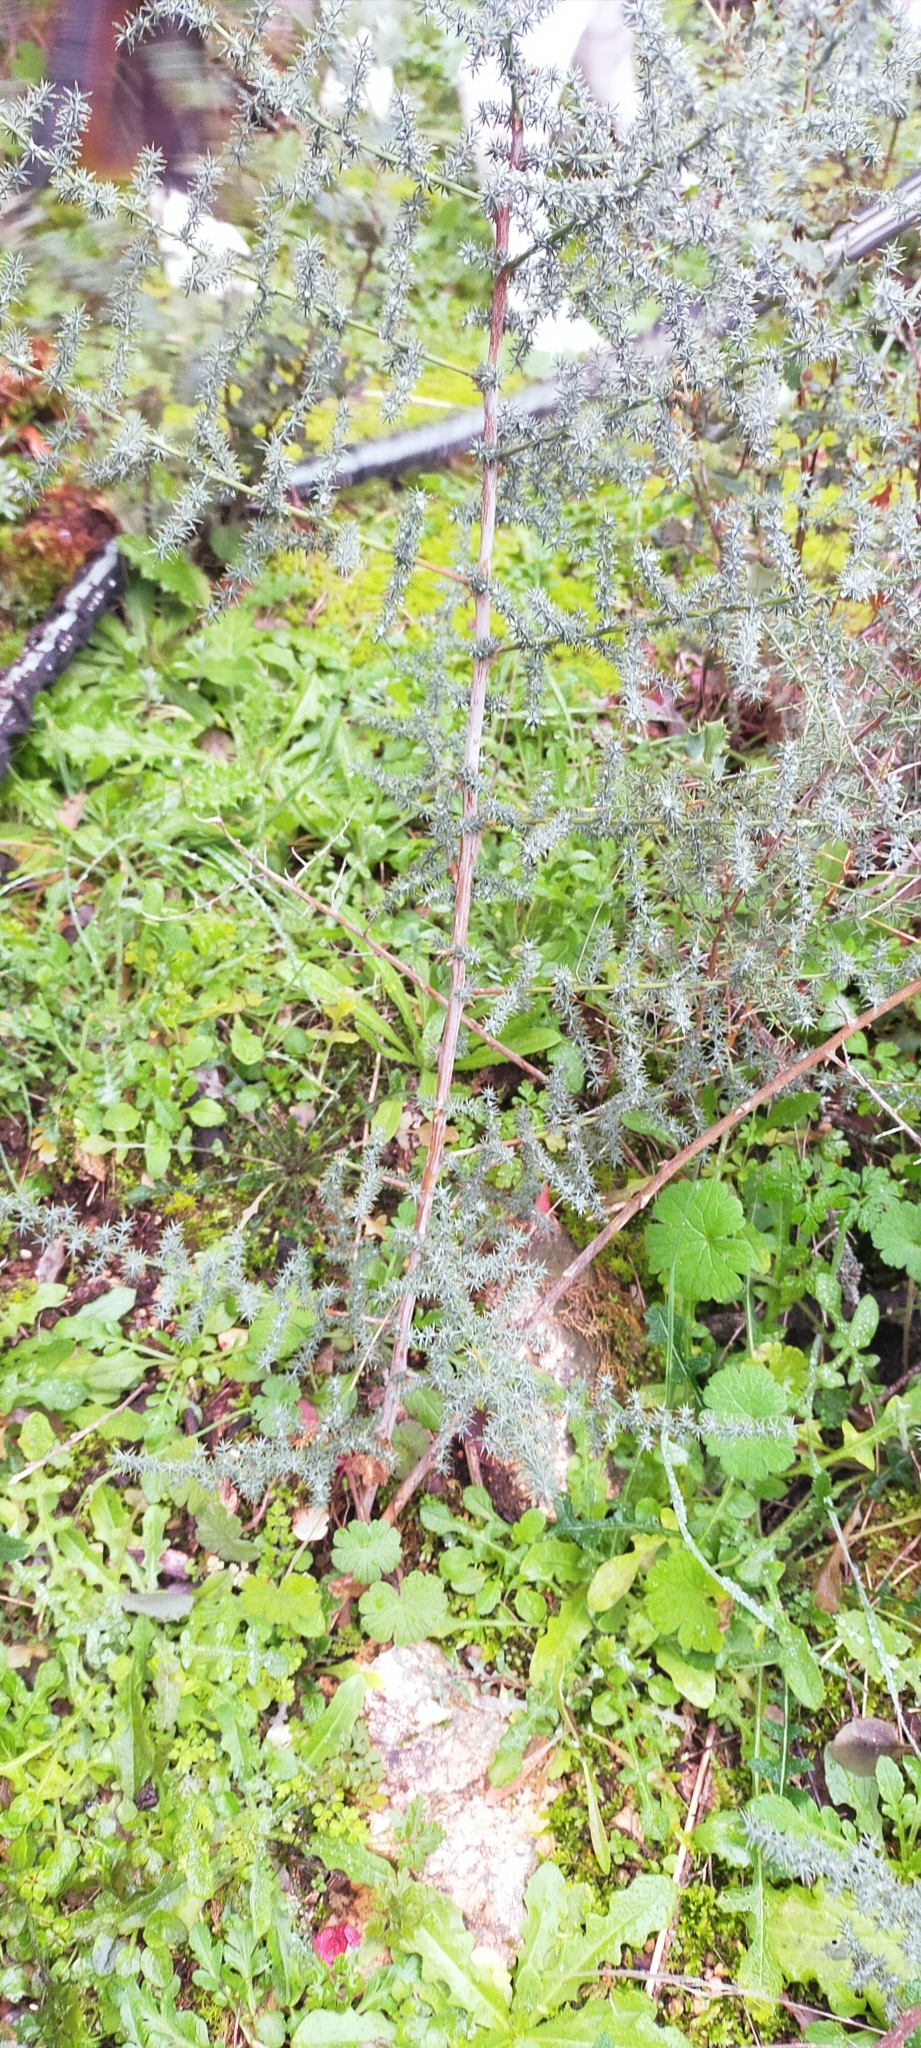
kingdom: Plantae
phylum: Tracheophyta
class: Liliopsida
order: Asparagales
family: Asparagaceae
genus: Asparagus
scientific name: Asparagus acutifolius
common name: Wild asparagus
